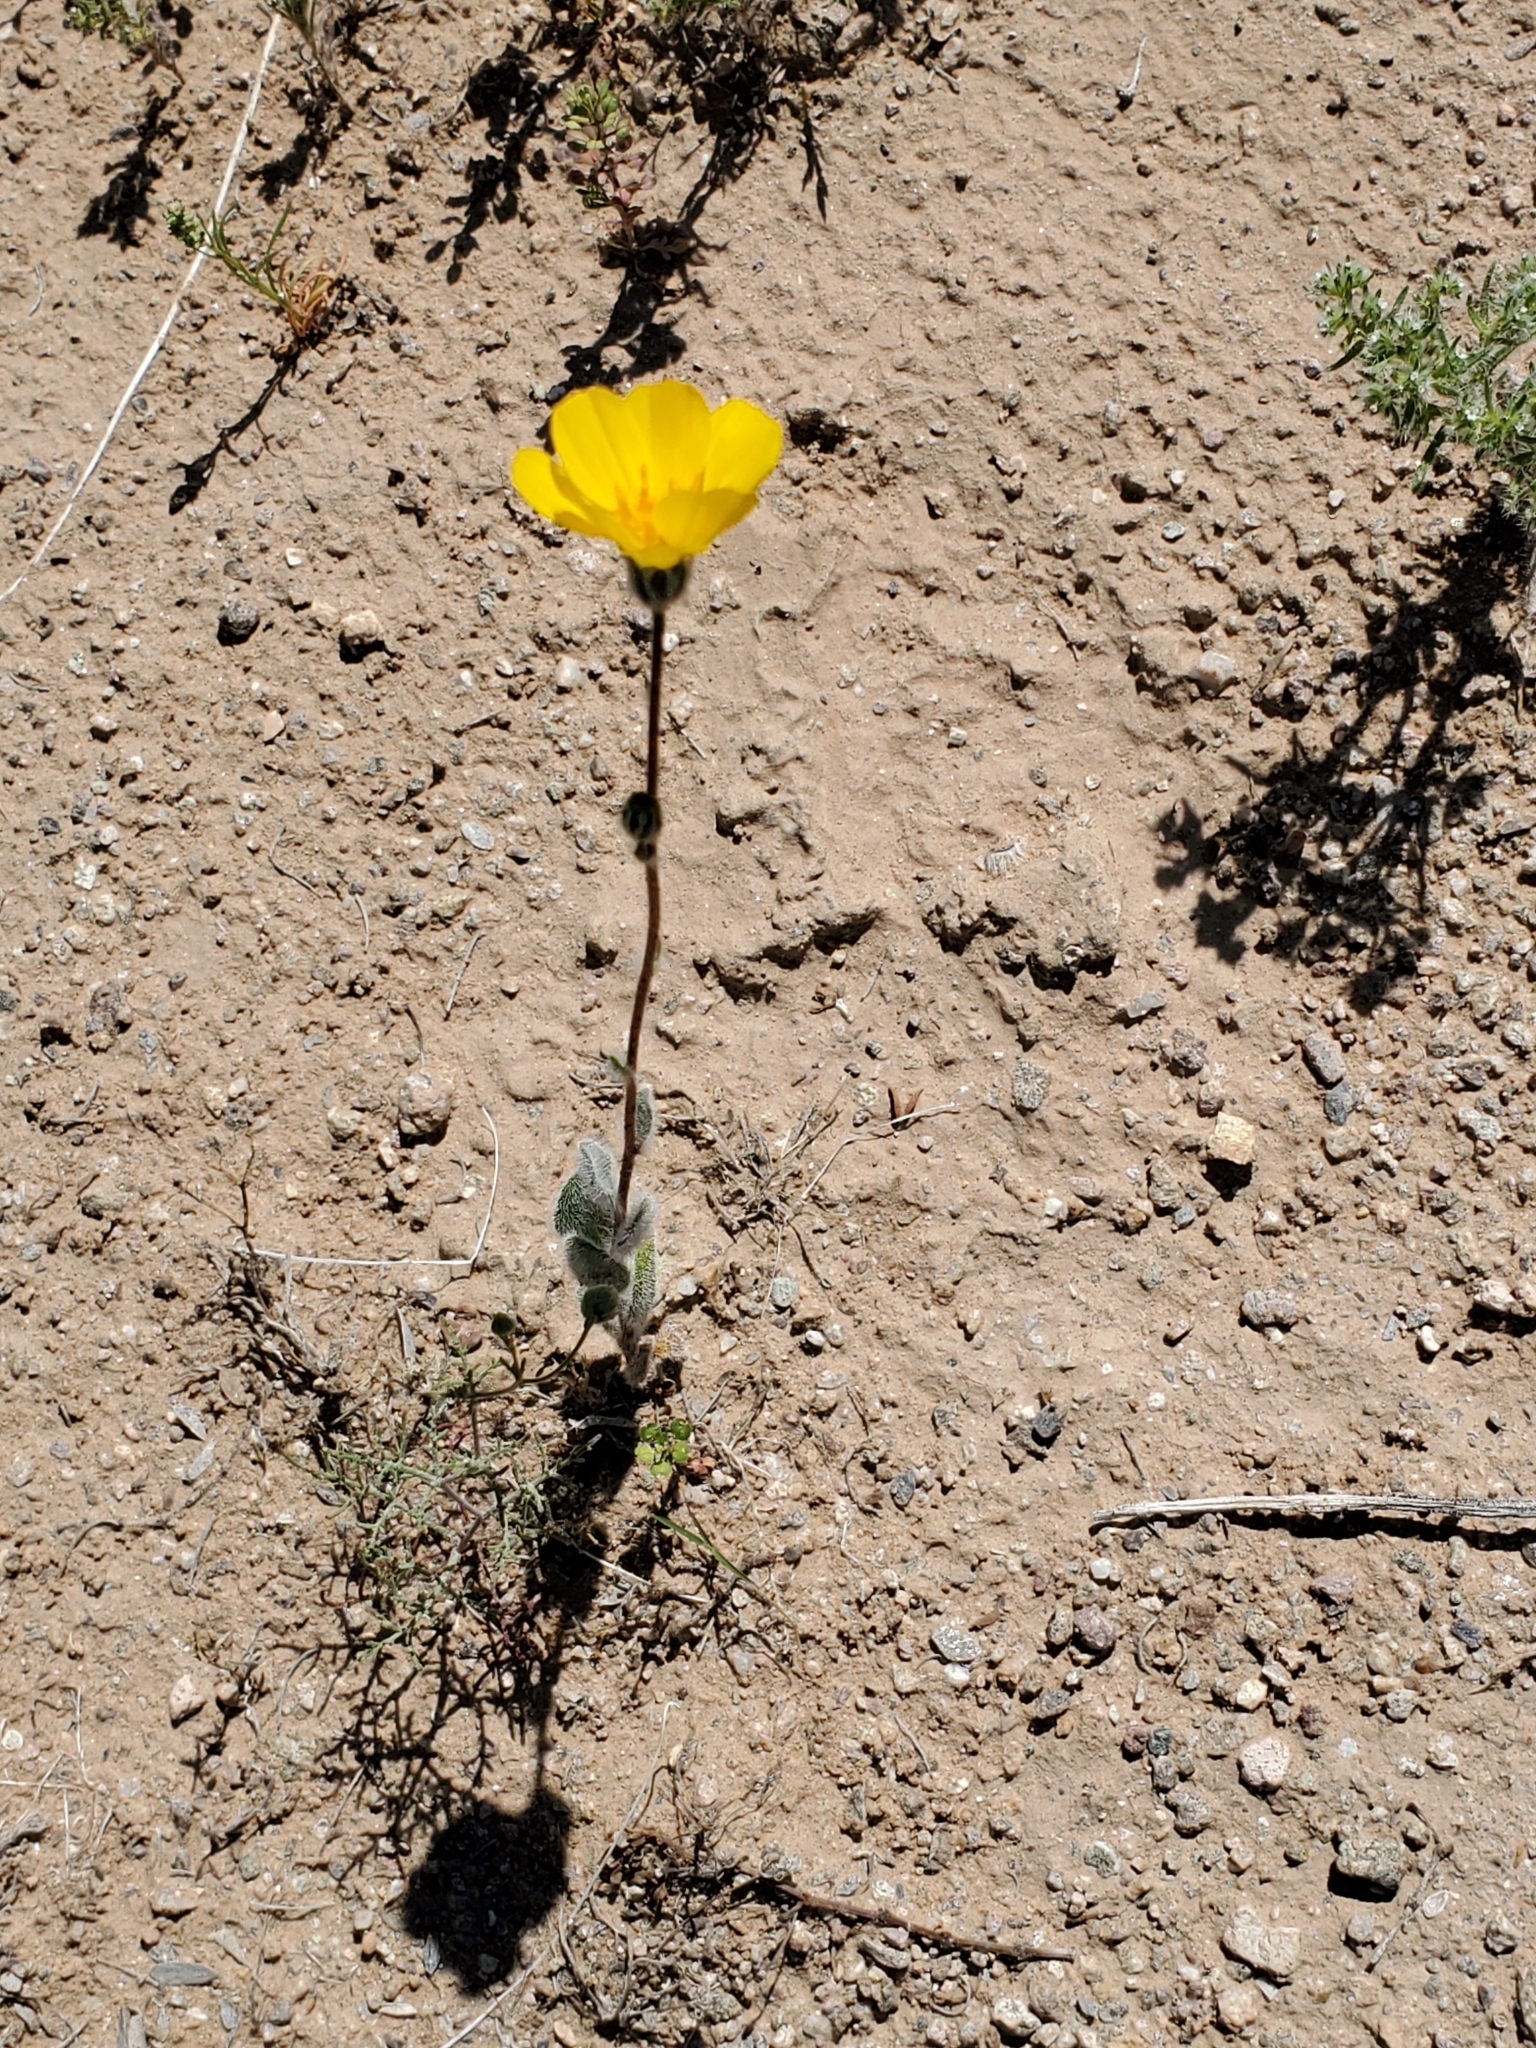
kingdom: Plantae
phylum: Tracheophyta
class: Magnoliopsida
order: Asterales
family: Asteraceae
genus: Geraea
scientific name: Geraea canescens
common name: Desert-gold
